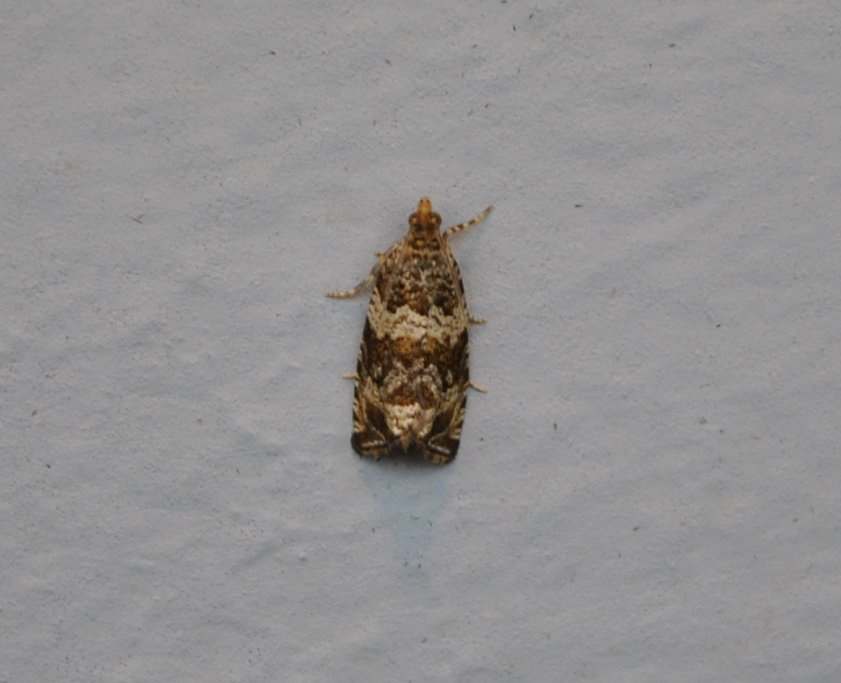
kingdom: Animalia
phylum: Arthropoda
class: Insecta
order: Lepidoptera
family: Tortricidae
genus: Celypha
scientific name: Celypha cespitana
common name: Thyme marble
